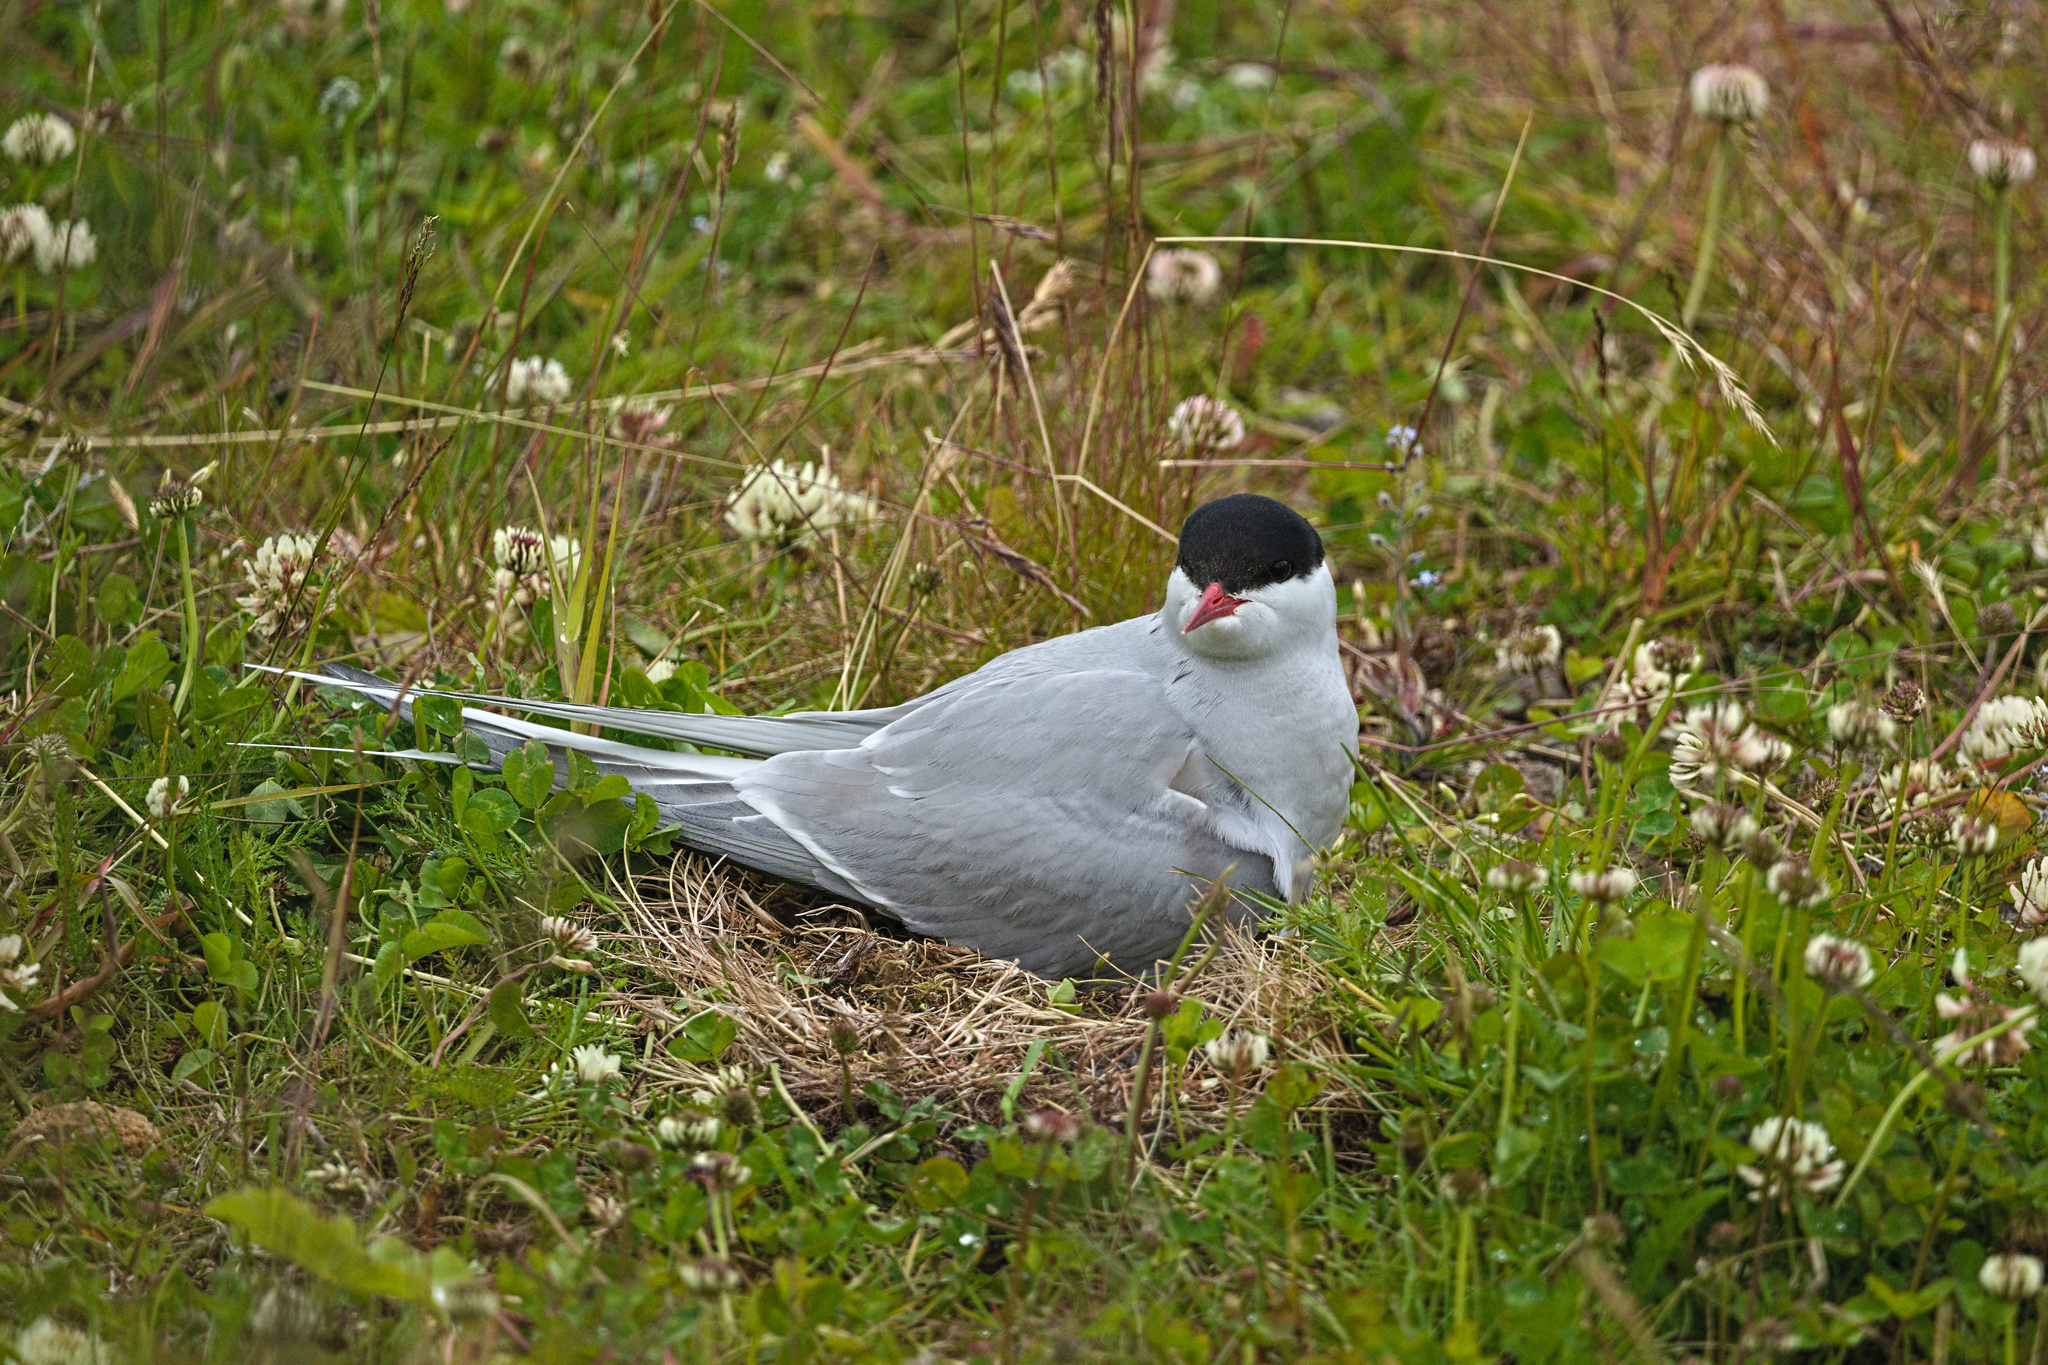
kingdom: Animalia
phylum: Chordata
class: Aves
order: Charadriiformes
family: Laridae
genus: Sterna
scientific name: Sterna paradisaea
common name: Arctic tern
